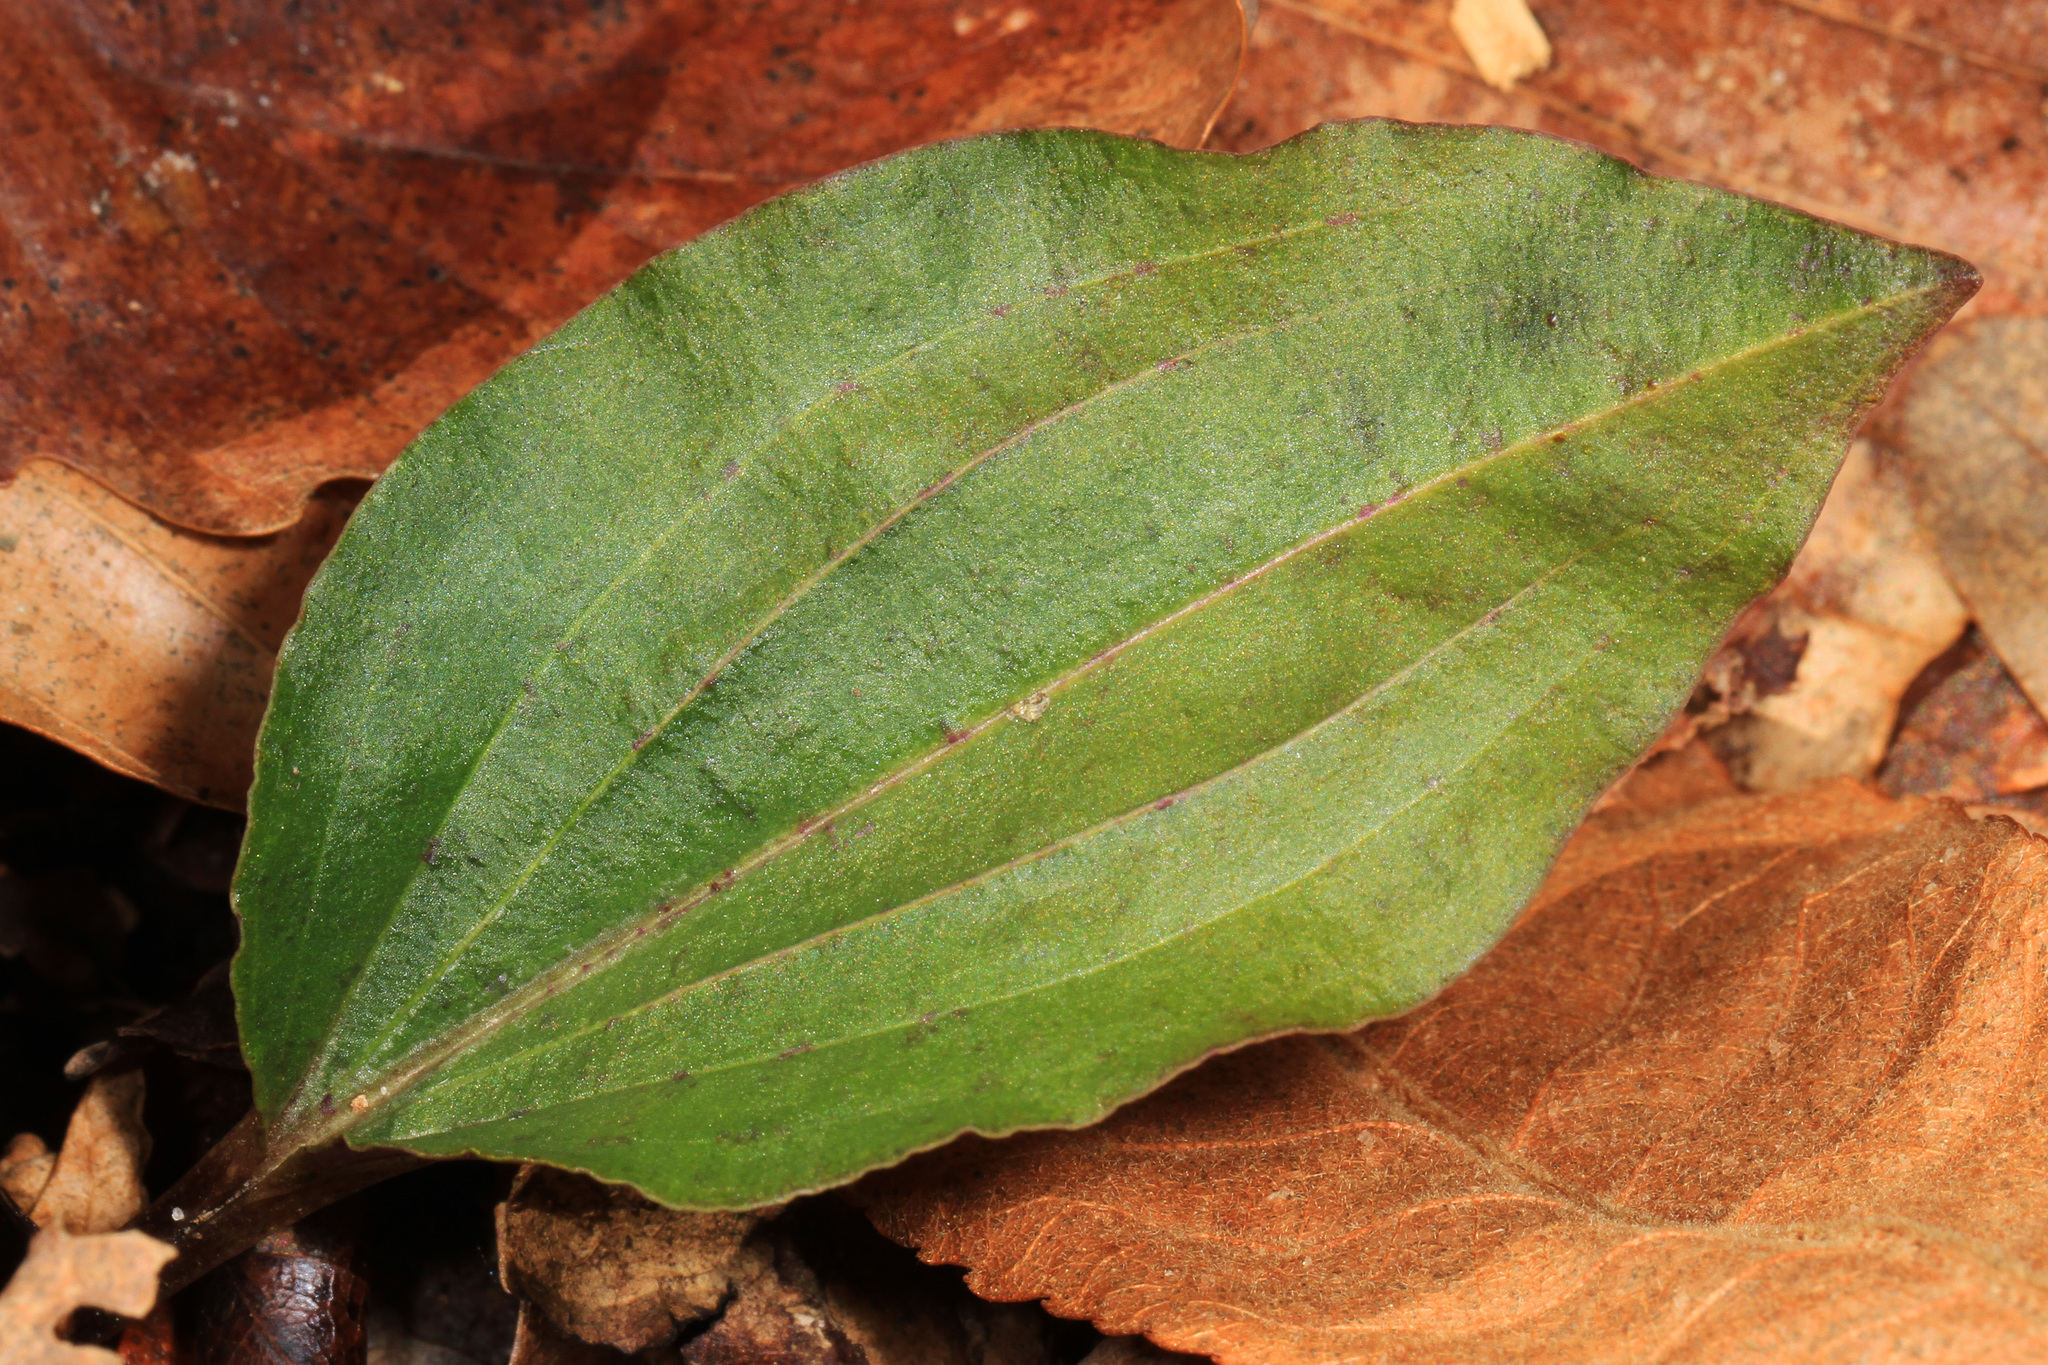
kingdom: Plantae
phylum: Tracheophyta
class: Liliopsida
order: Asparagales
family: Orchidaceae
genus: Tipularia
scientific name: Tipularia discolor
